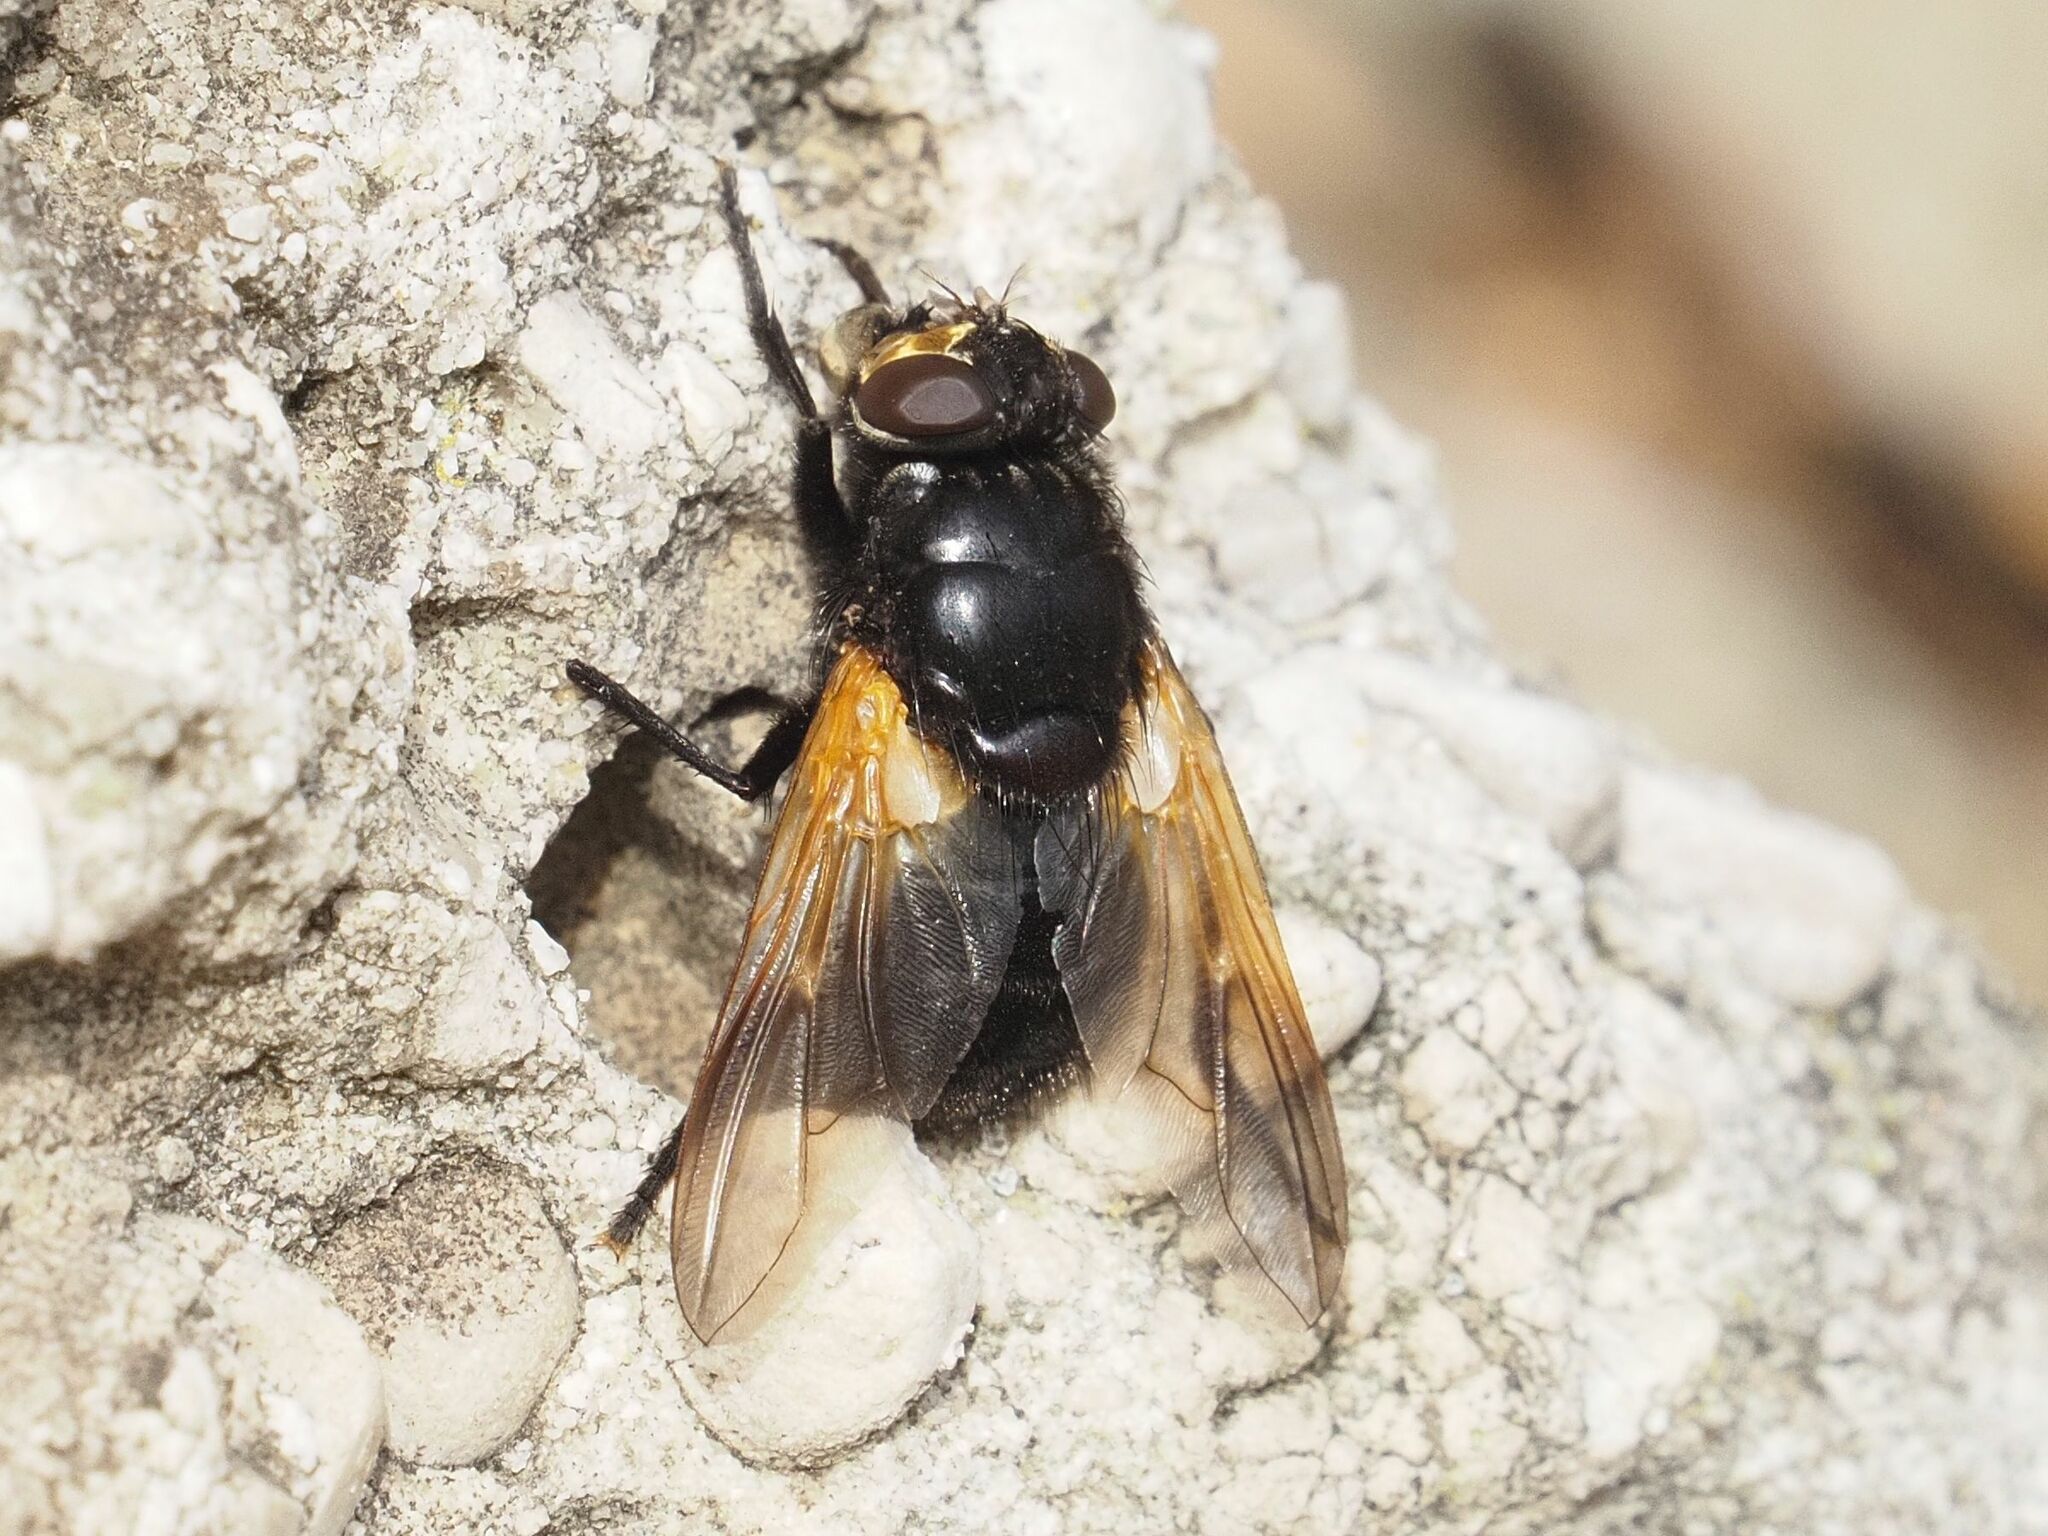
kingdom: Animalia
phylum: Arthropoda
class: Insecta
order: Diptera
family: Muscidae
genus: Mesembrina
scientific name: Mesembrina meridiana
